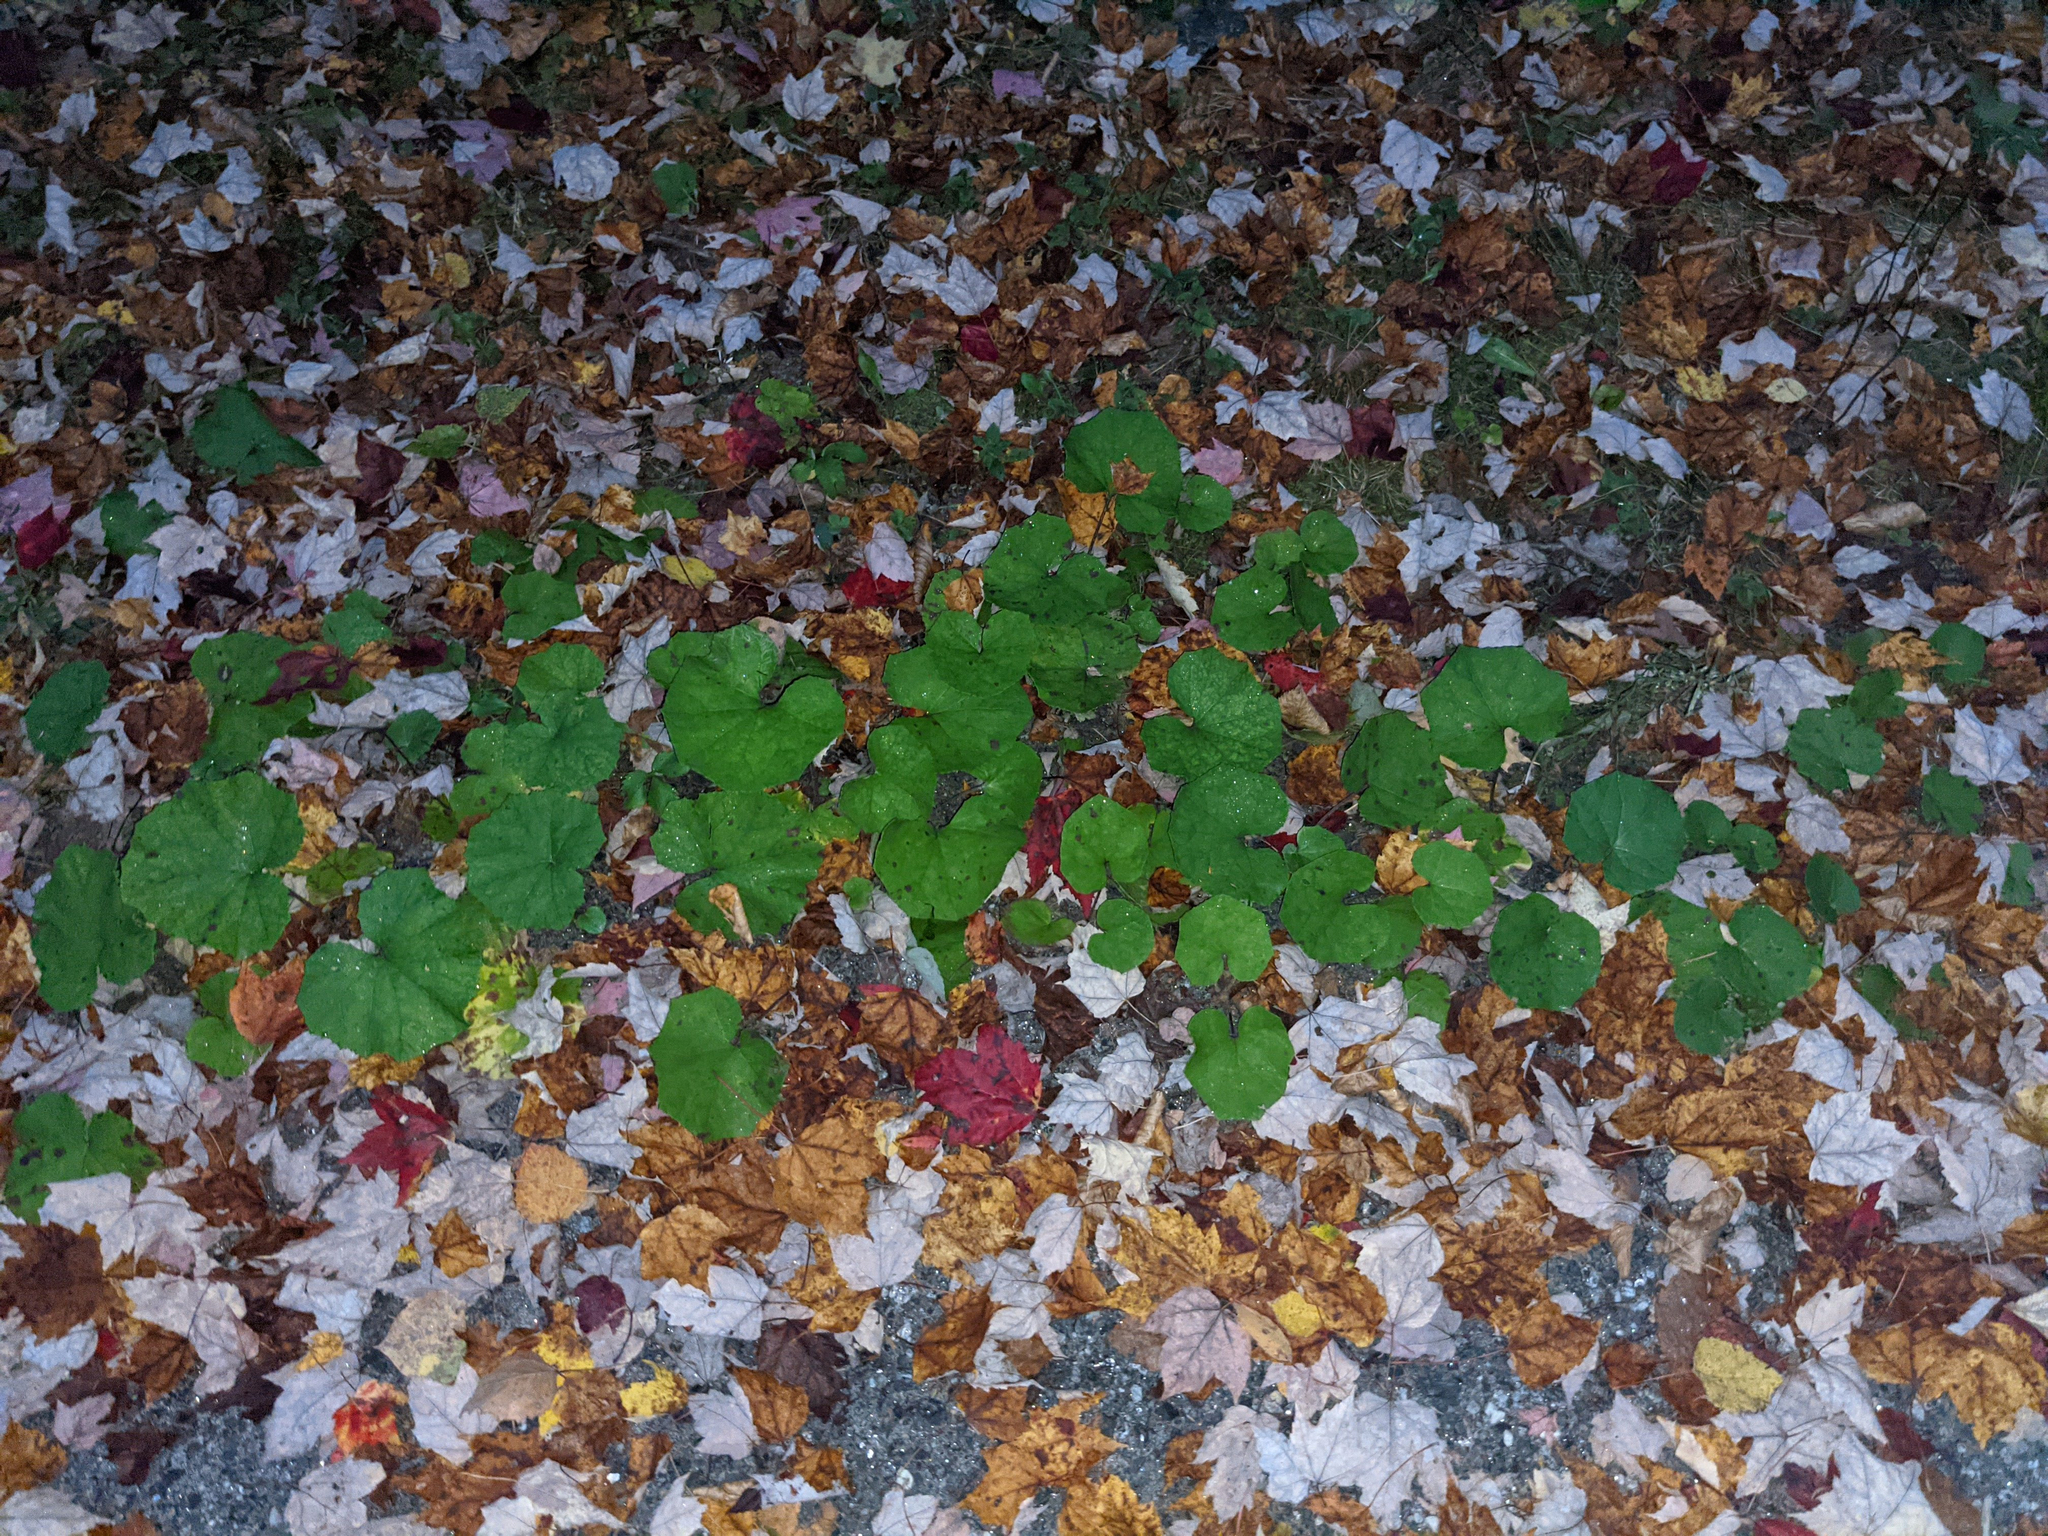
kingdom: Plantae
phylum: Tracheophyta
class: Magnoliopsida
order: Asterales
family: Asteraceae
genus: Tussilago
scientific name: Tussilago farfara
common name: Coltsfoot
